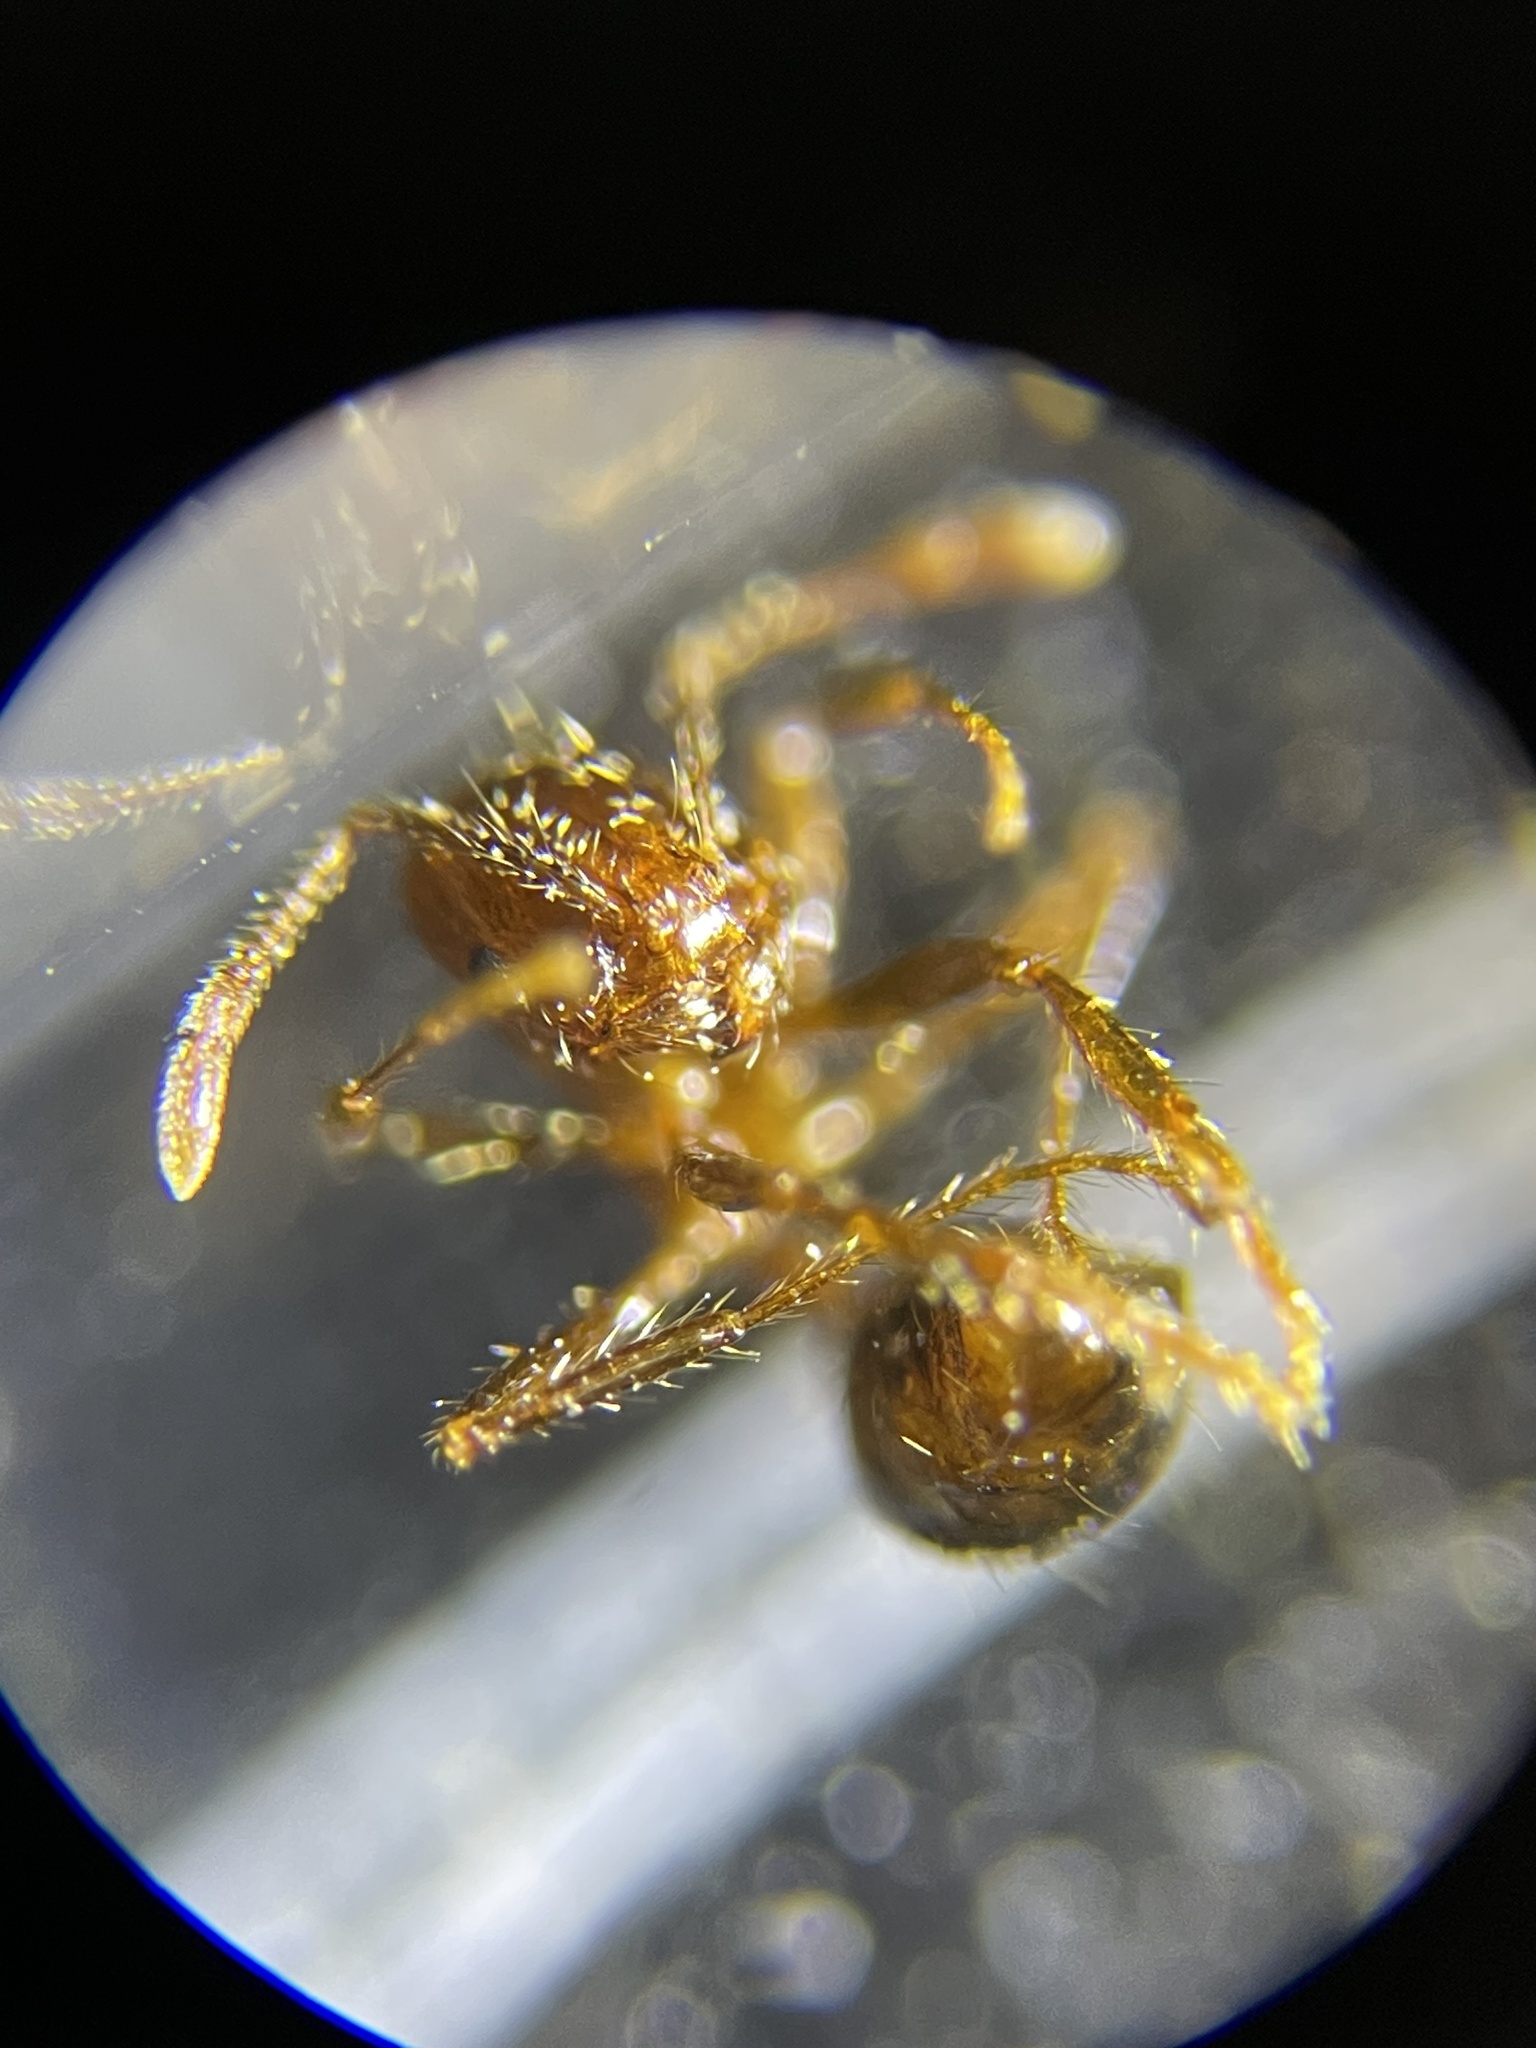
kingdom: Animalia
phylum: Arthropoda
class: Insecta
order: Hymenoptera
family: Formicidae
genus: Solenopsis
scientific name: Solenopsis invicta
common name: Red imported fire ant
